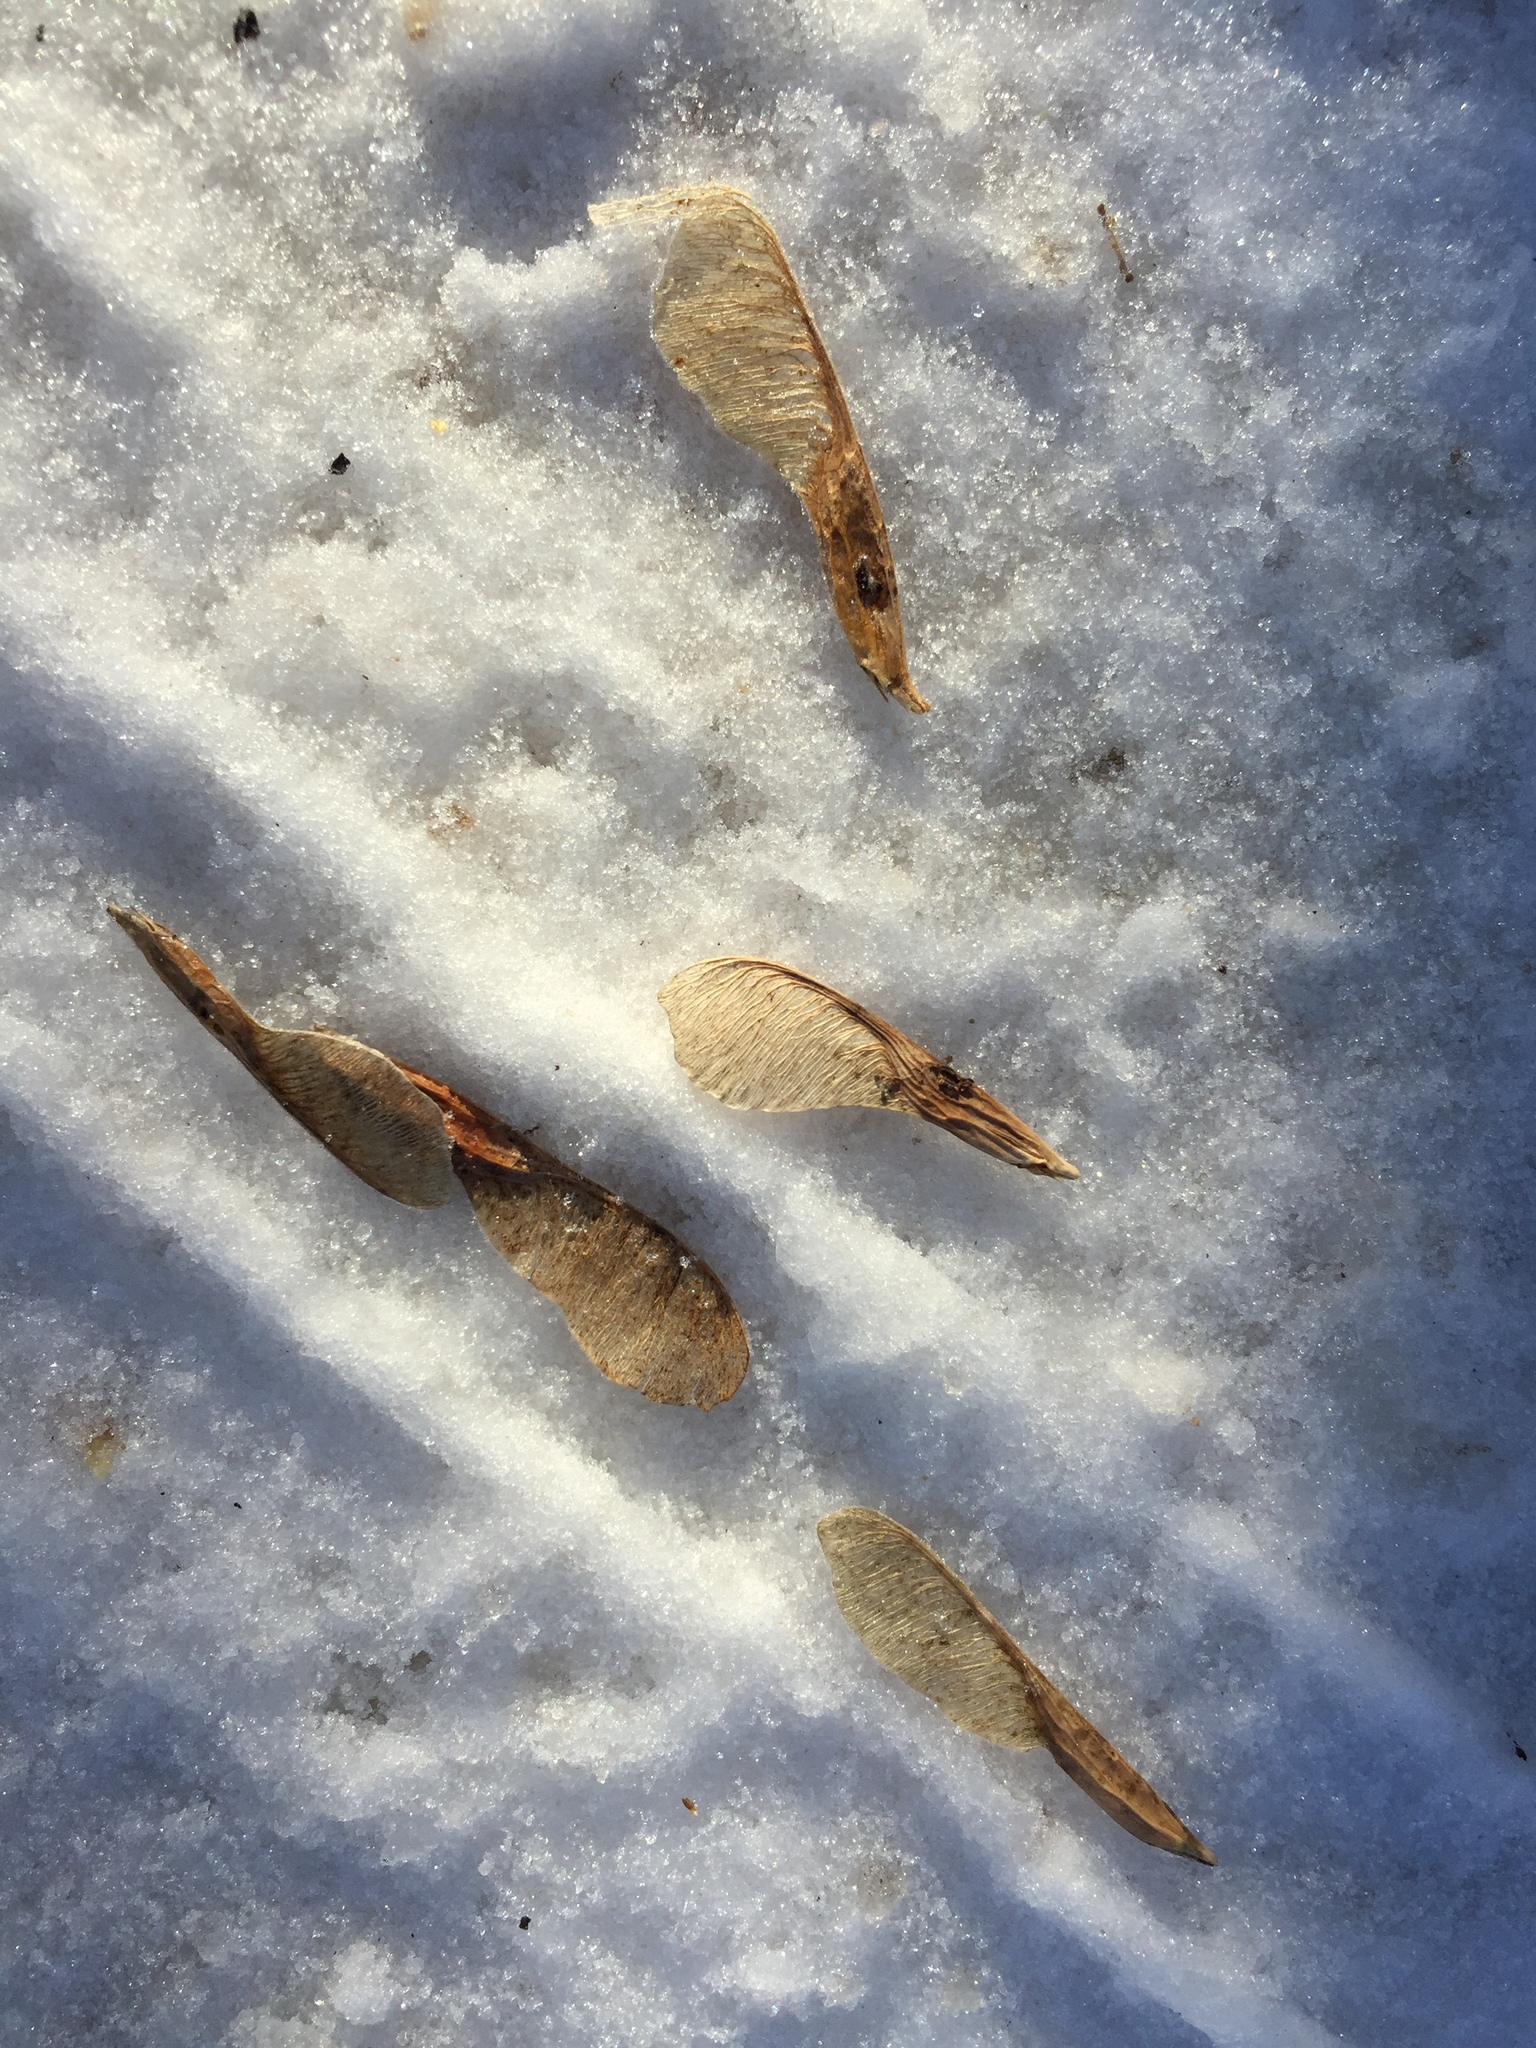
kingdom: Plantae
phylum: Tracheophyta
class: Magnoliopsida
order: Sapindales
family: Sapindaceae
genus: Acer
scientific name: Acer negundo
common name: Ashleaf maple
